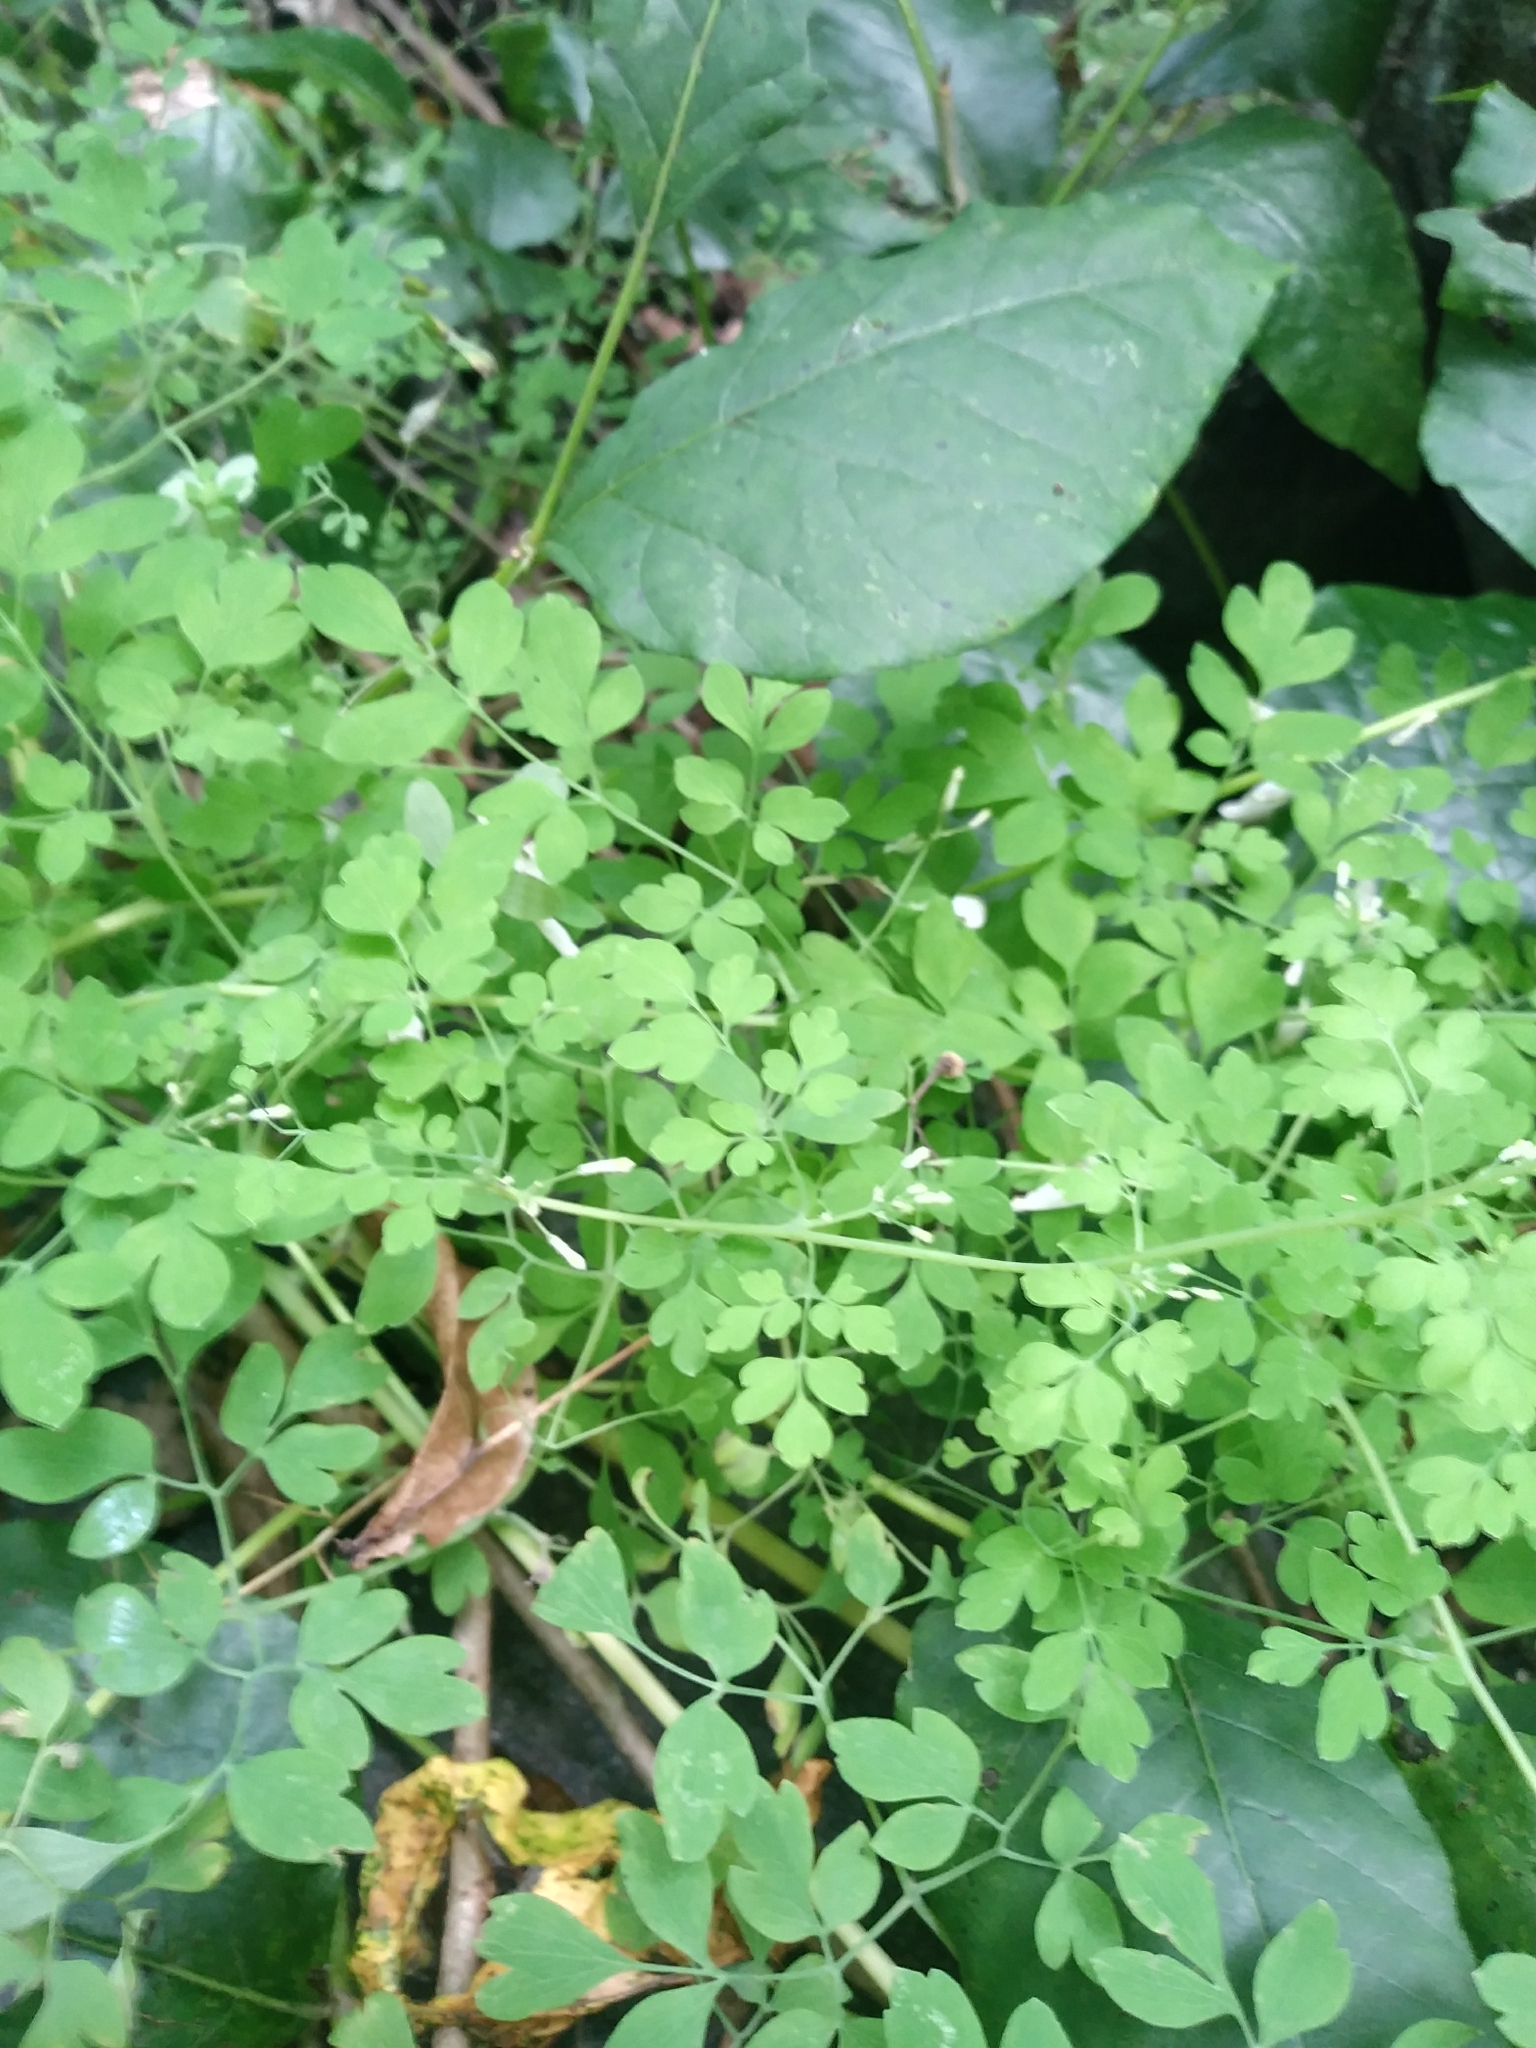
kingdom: Plantae
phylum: Tracheophyta
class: Magnoliopsida
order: Ranunculales
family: Papaveraceae
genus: Adlumia
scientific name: Adlumia fungosa
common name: Mountain-fringe
